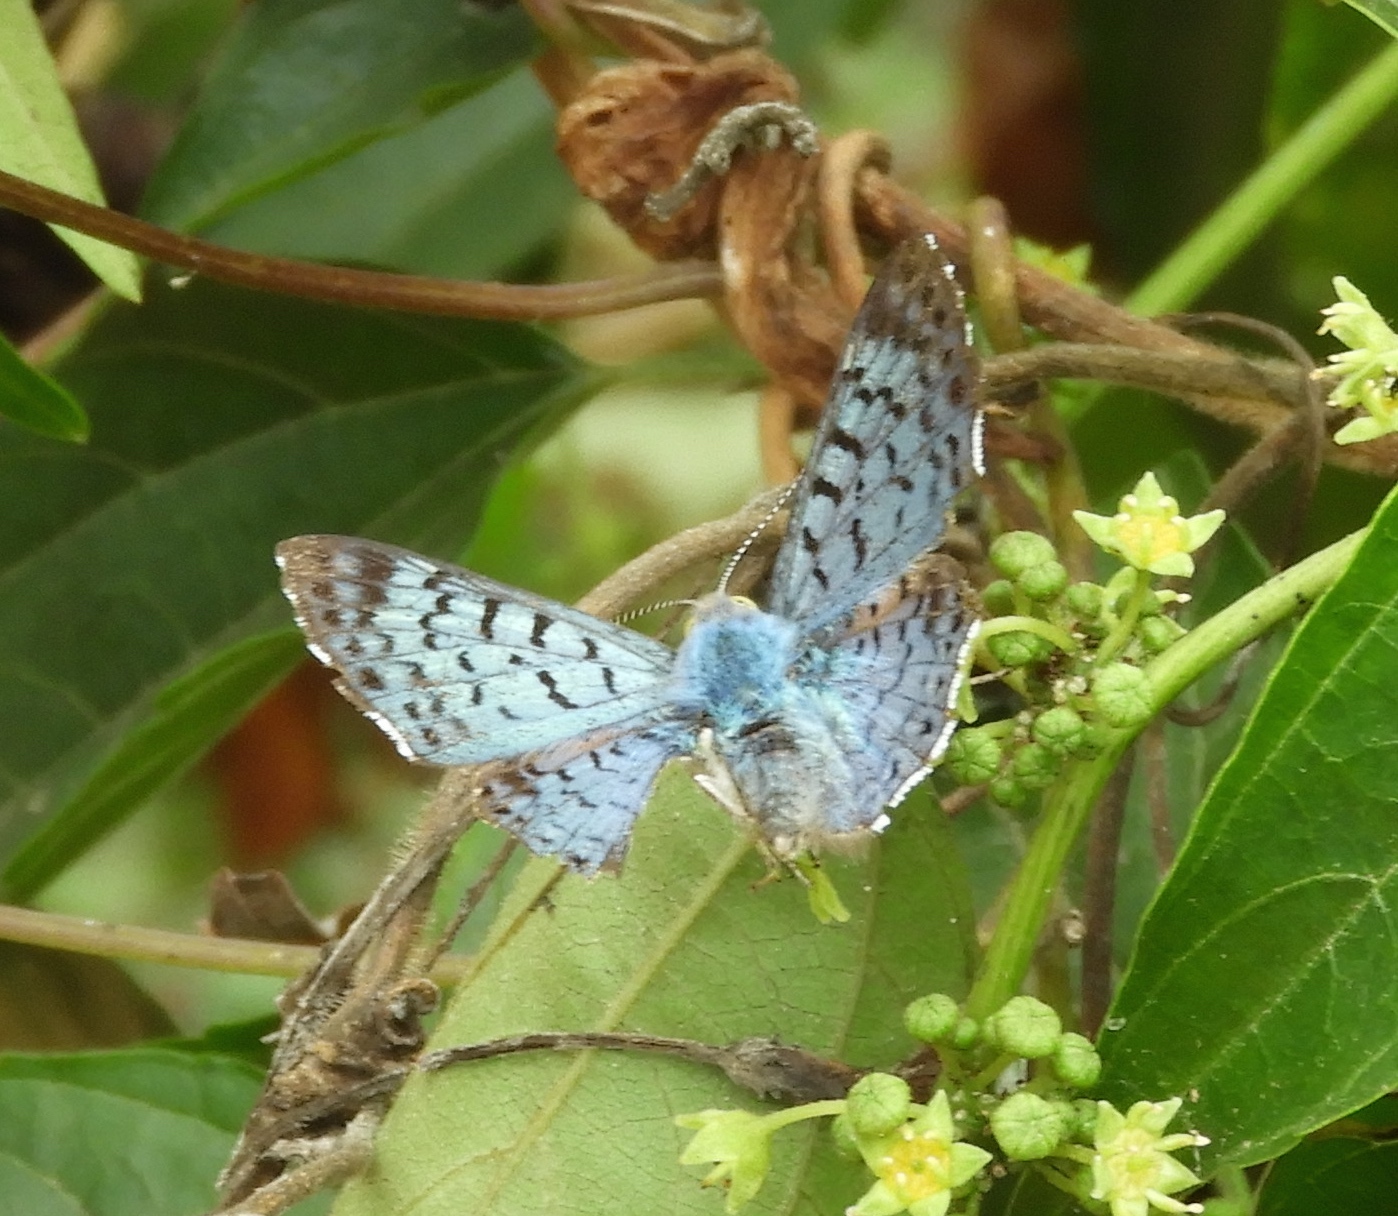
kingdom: Animalia
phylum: Arthropoda
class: Insecta
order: Lepidoptera
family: Riodinidae
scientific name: Riodinidae
